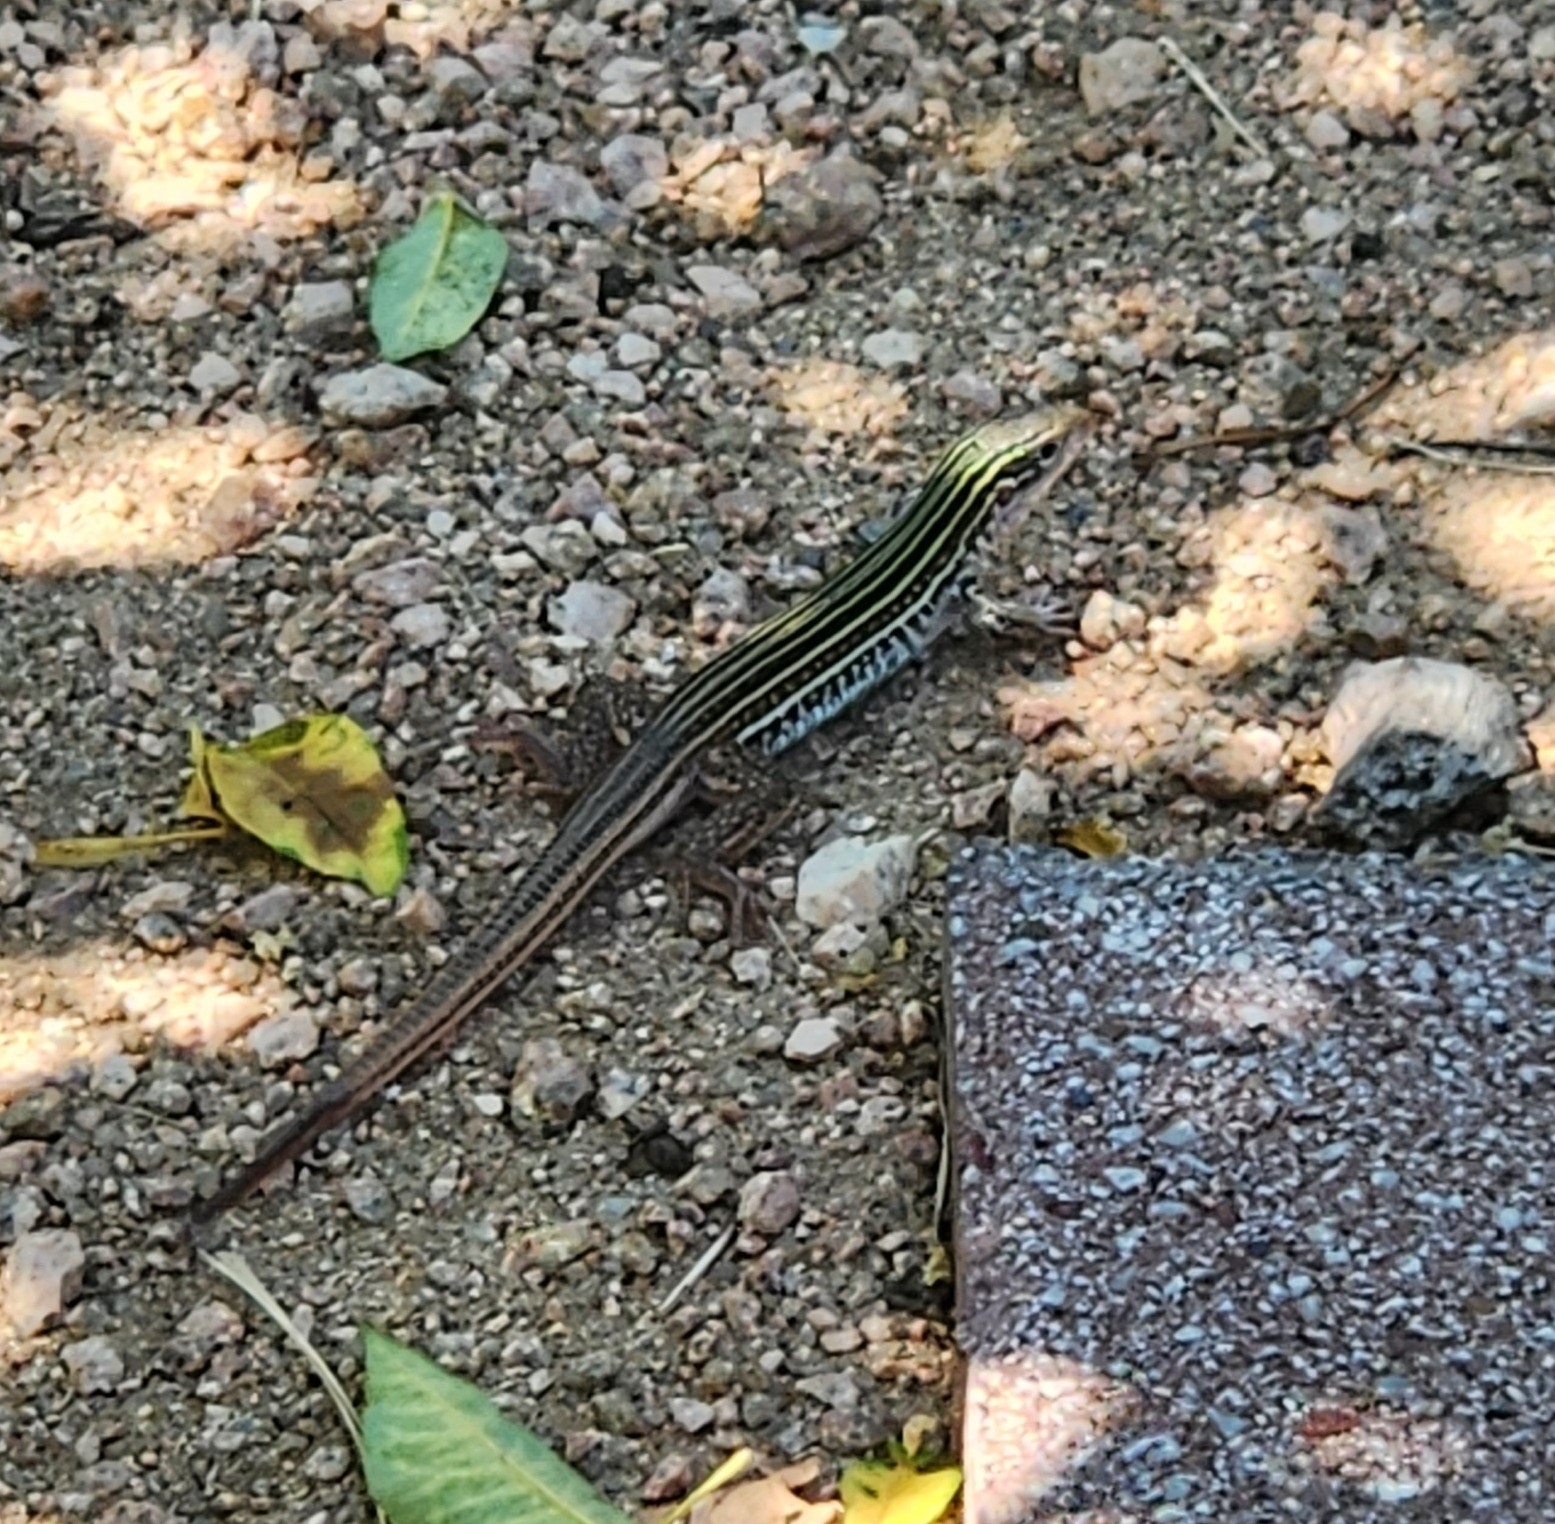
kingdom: Animalia
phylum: Chordata
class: Squamata
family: Teiidae
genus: Aspidoscelis
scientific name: Aspidoscelis gularis
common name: Eastern spotted whiptail
